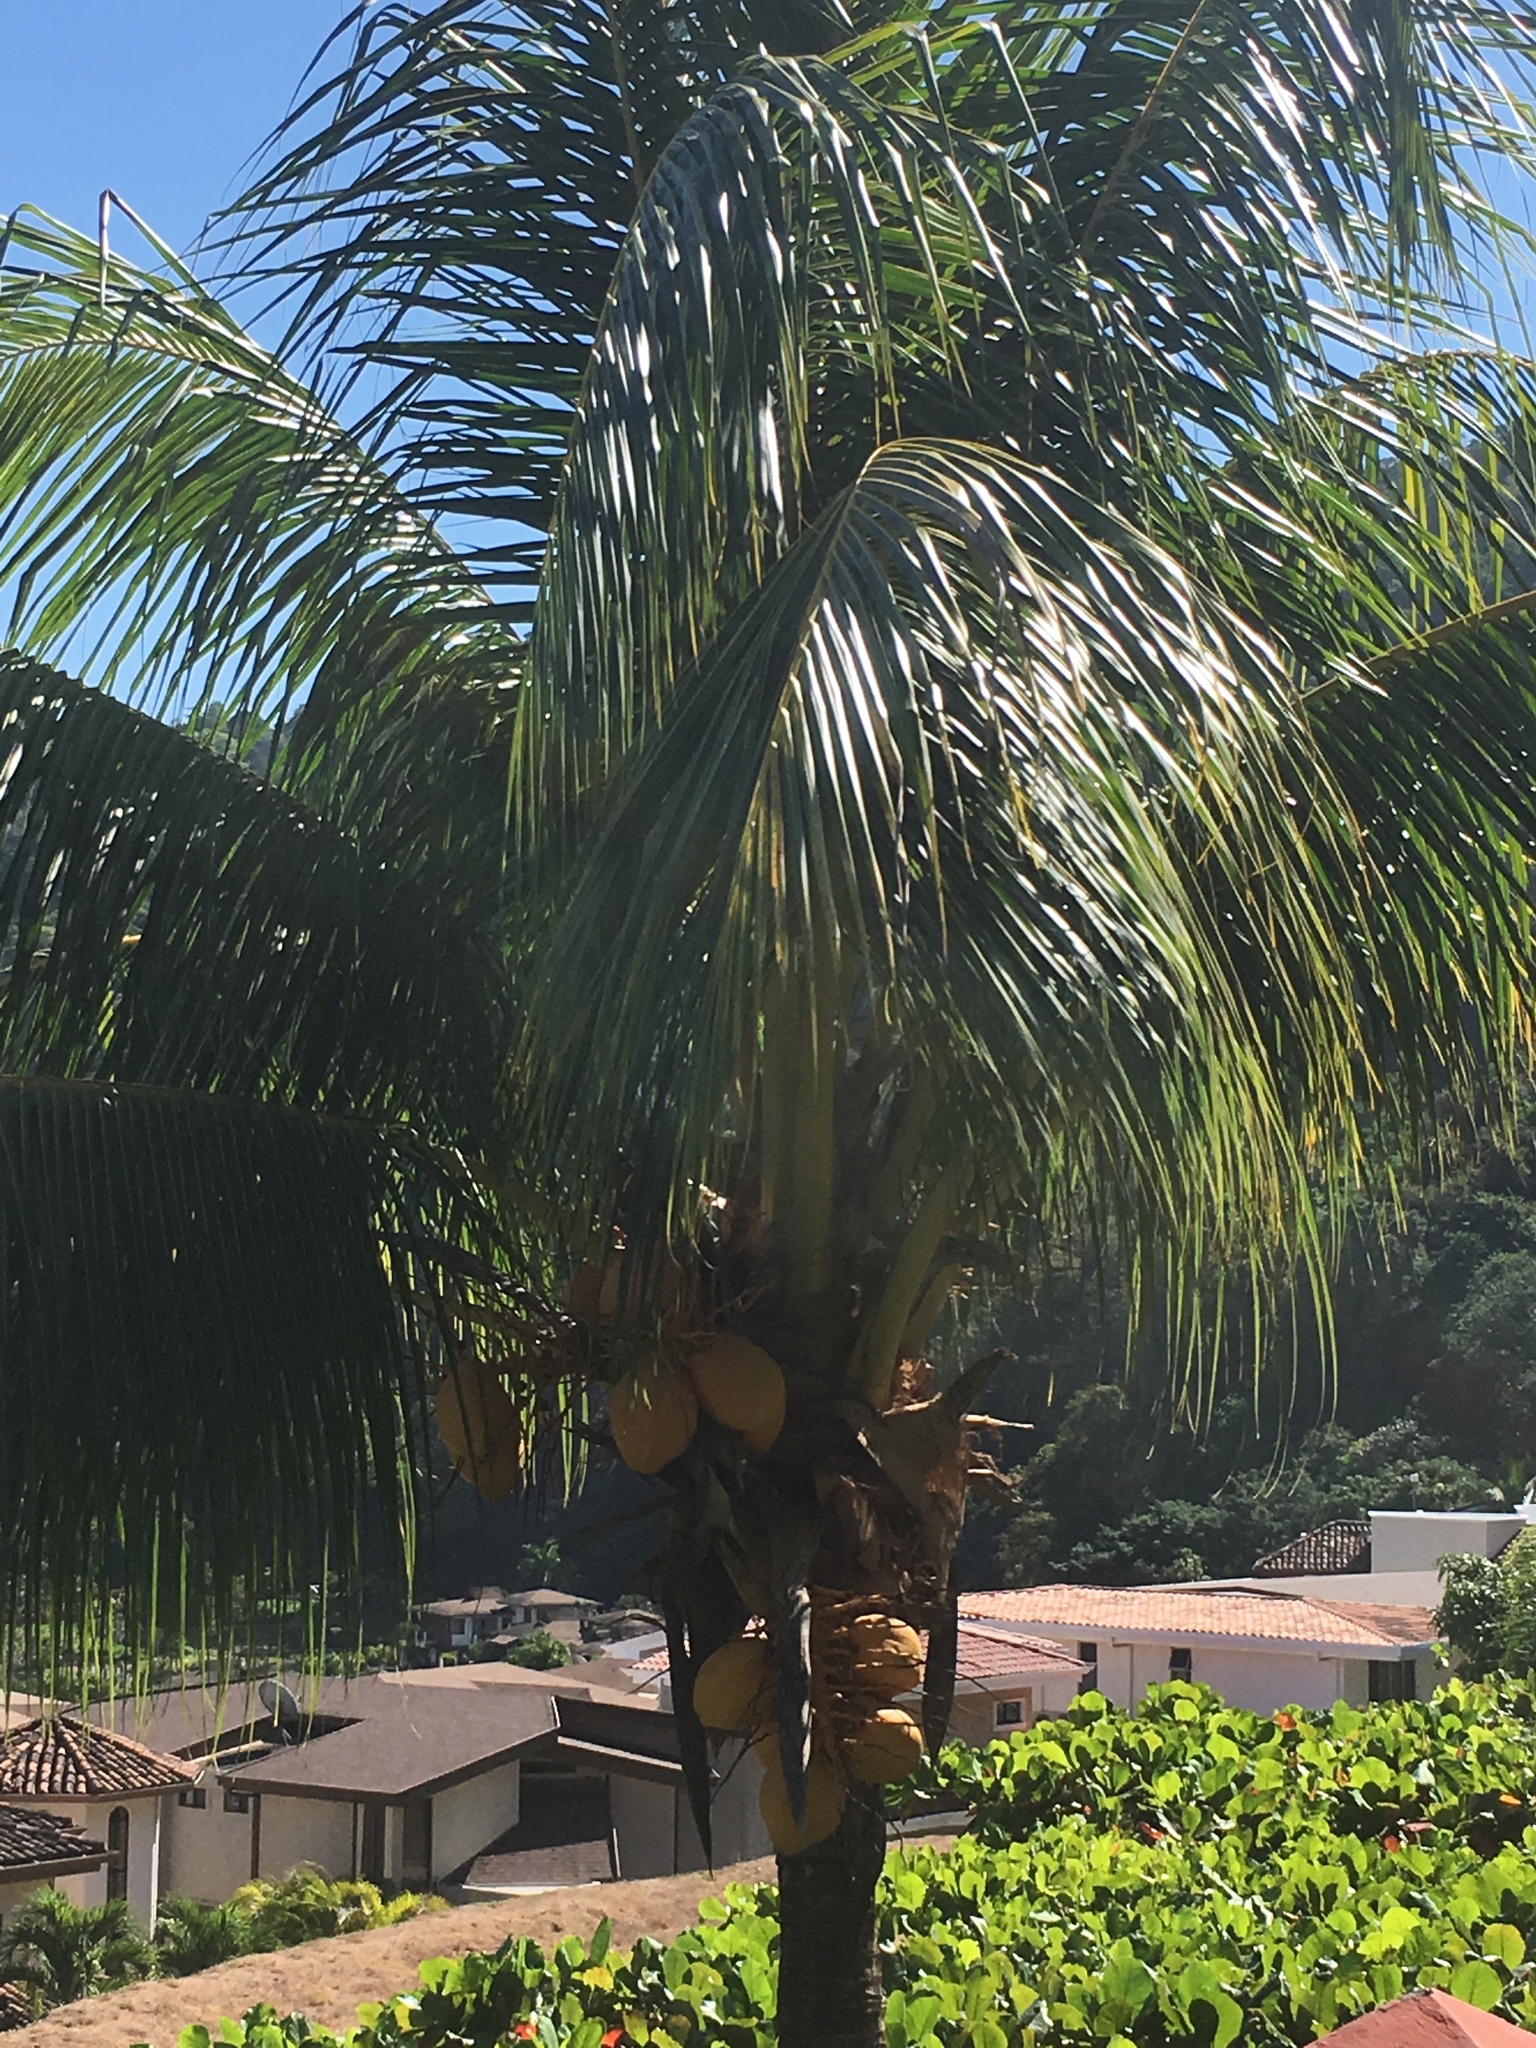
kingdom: Plantae
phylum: Tracheophyta
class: Liliopsida
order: Arecales
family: Arecaceae
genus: Cocos
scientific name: Cocos nucifera
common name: Coconut palm
